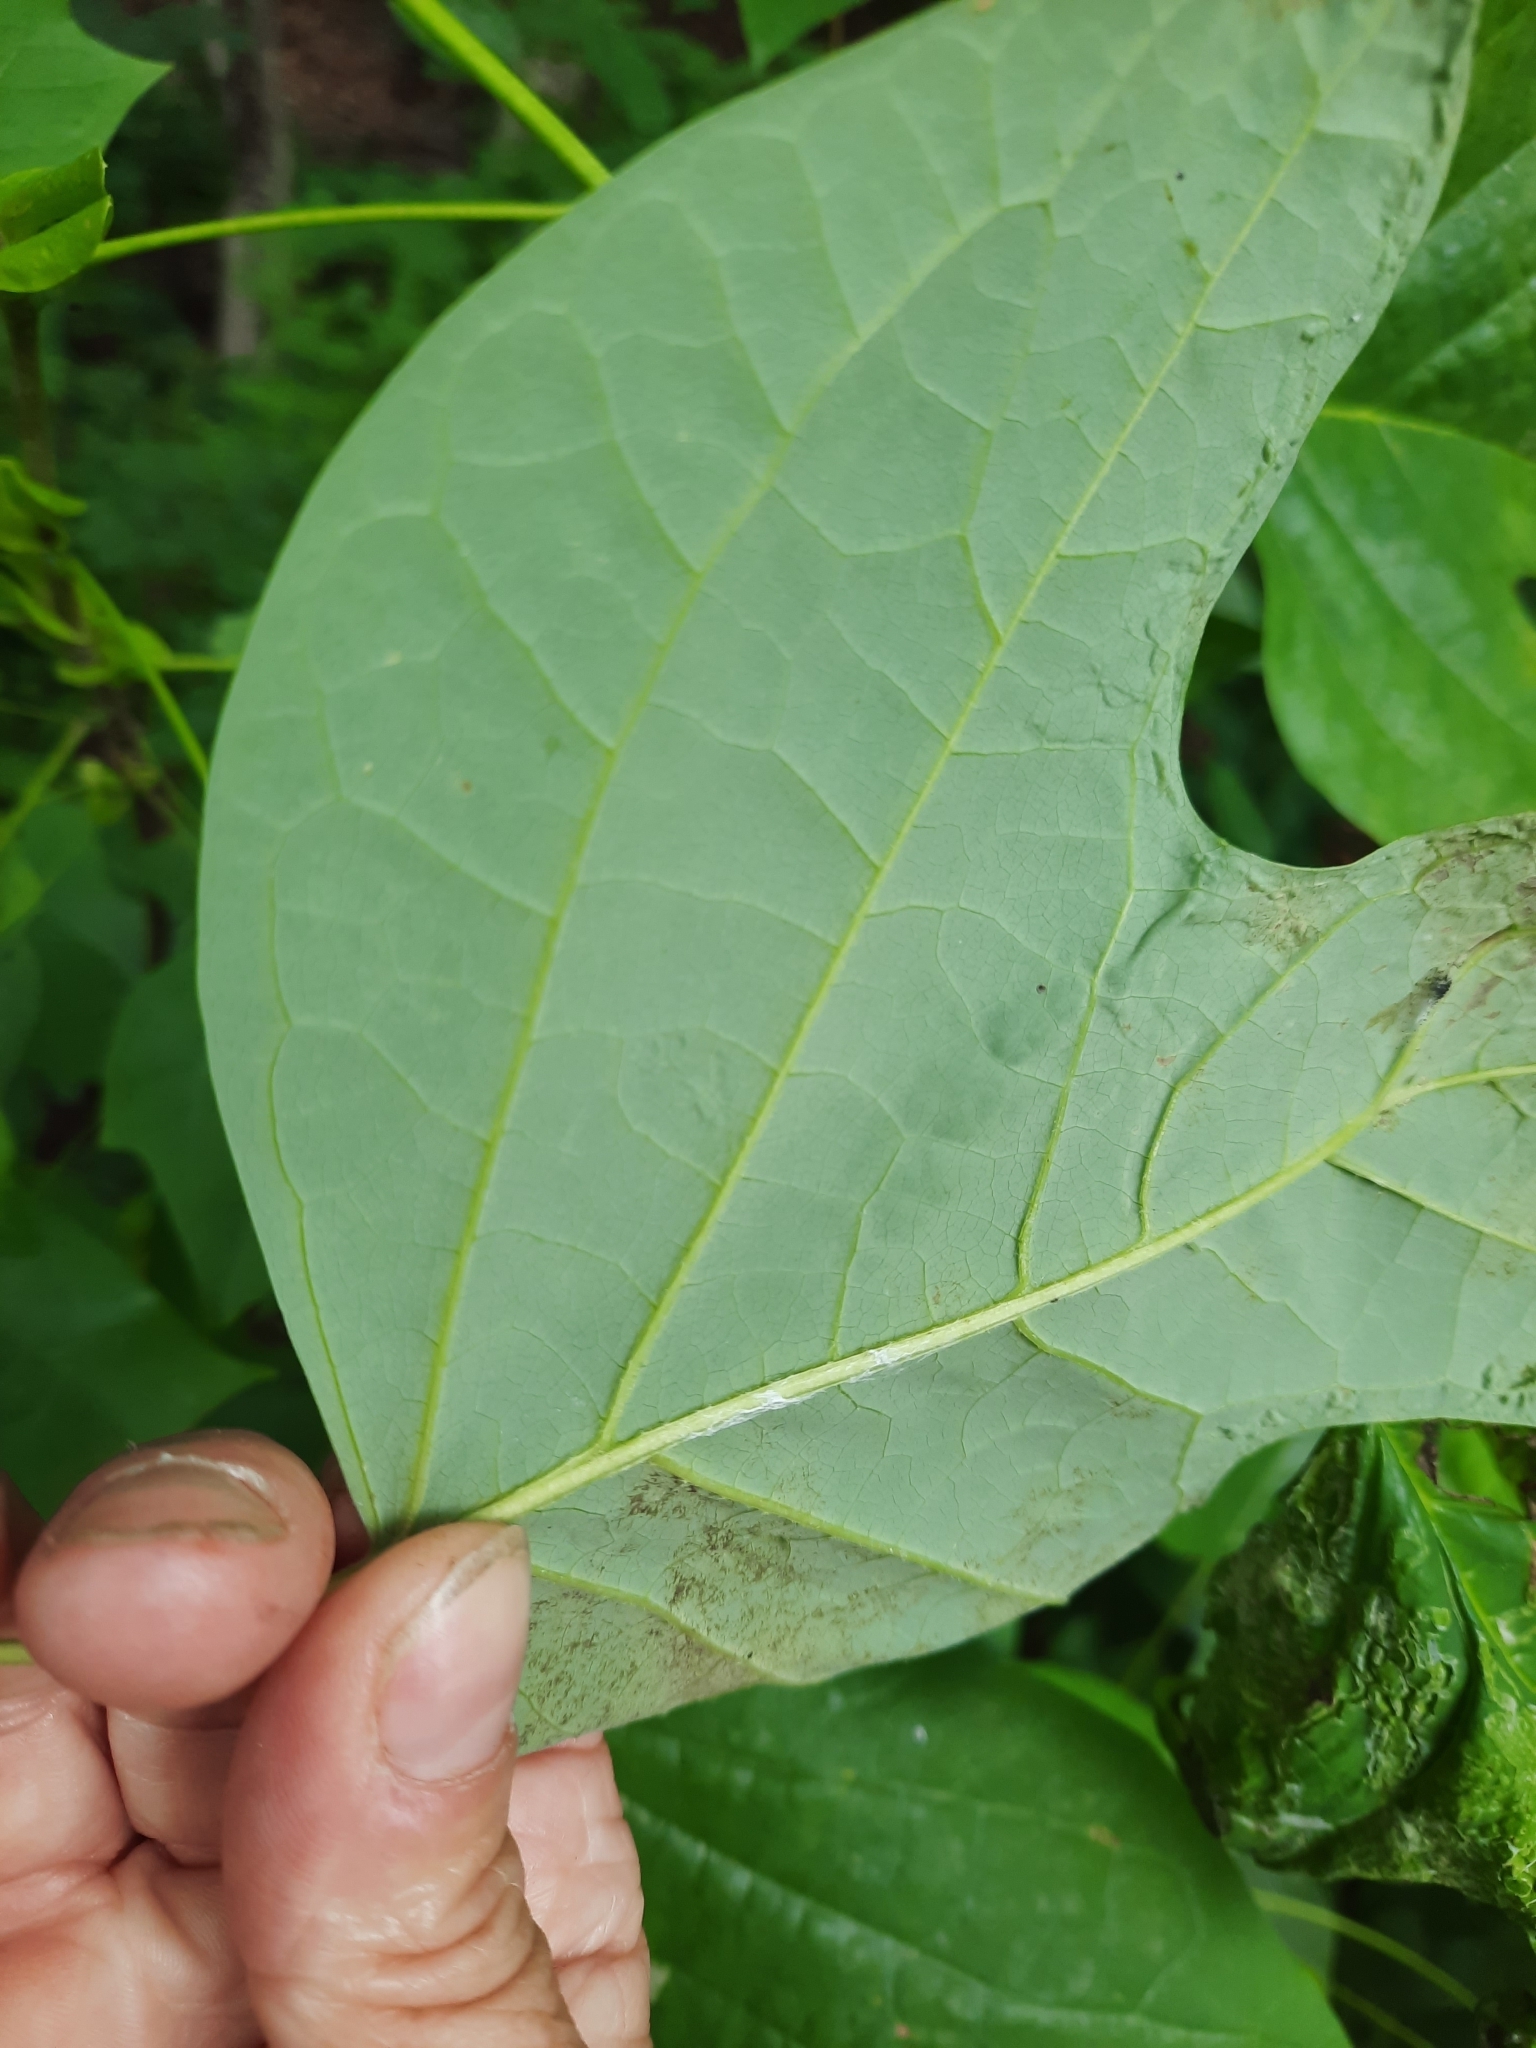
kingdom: Animalia
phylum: Arthropoda
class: Insecta
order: Lepidoptera
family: Gracillariidae
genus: Phyllocnistis
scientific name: Phyllocnistis liriodendronella
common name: Tulip tree leaf miner
